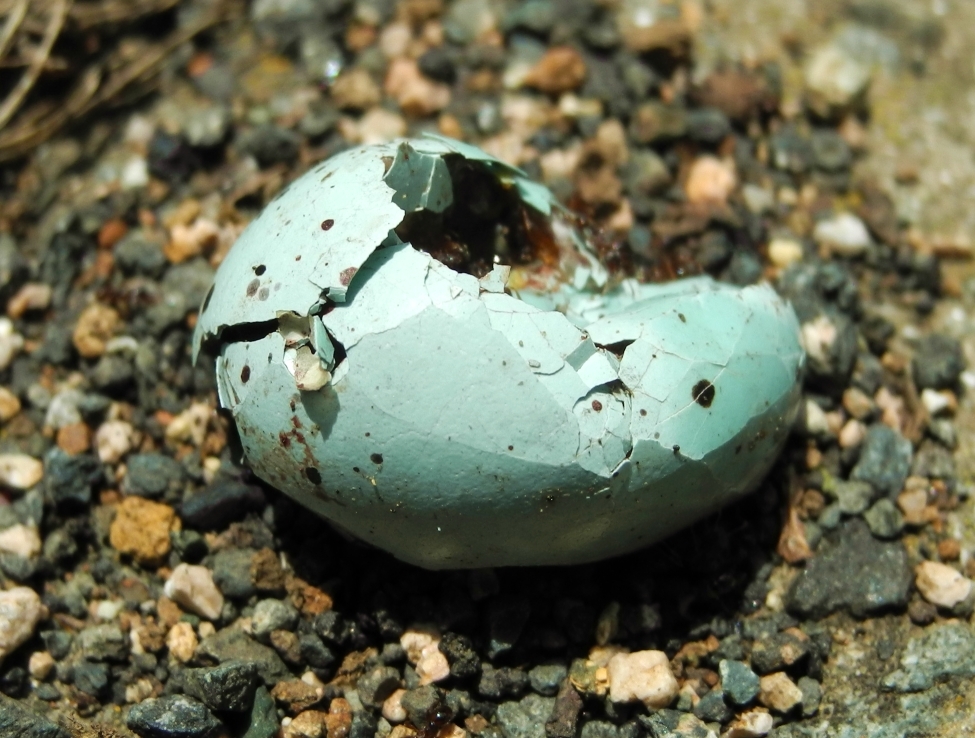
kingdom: Animalia
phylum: Chordata
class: Aves
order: Passeriformes
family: Turdidae
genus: Turdus
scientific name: Turdus philomelos
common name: Song thrush
